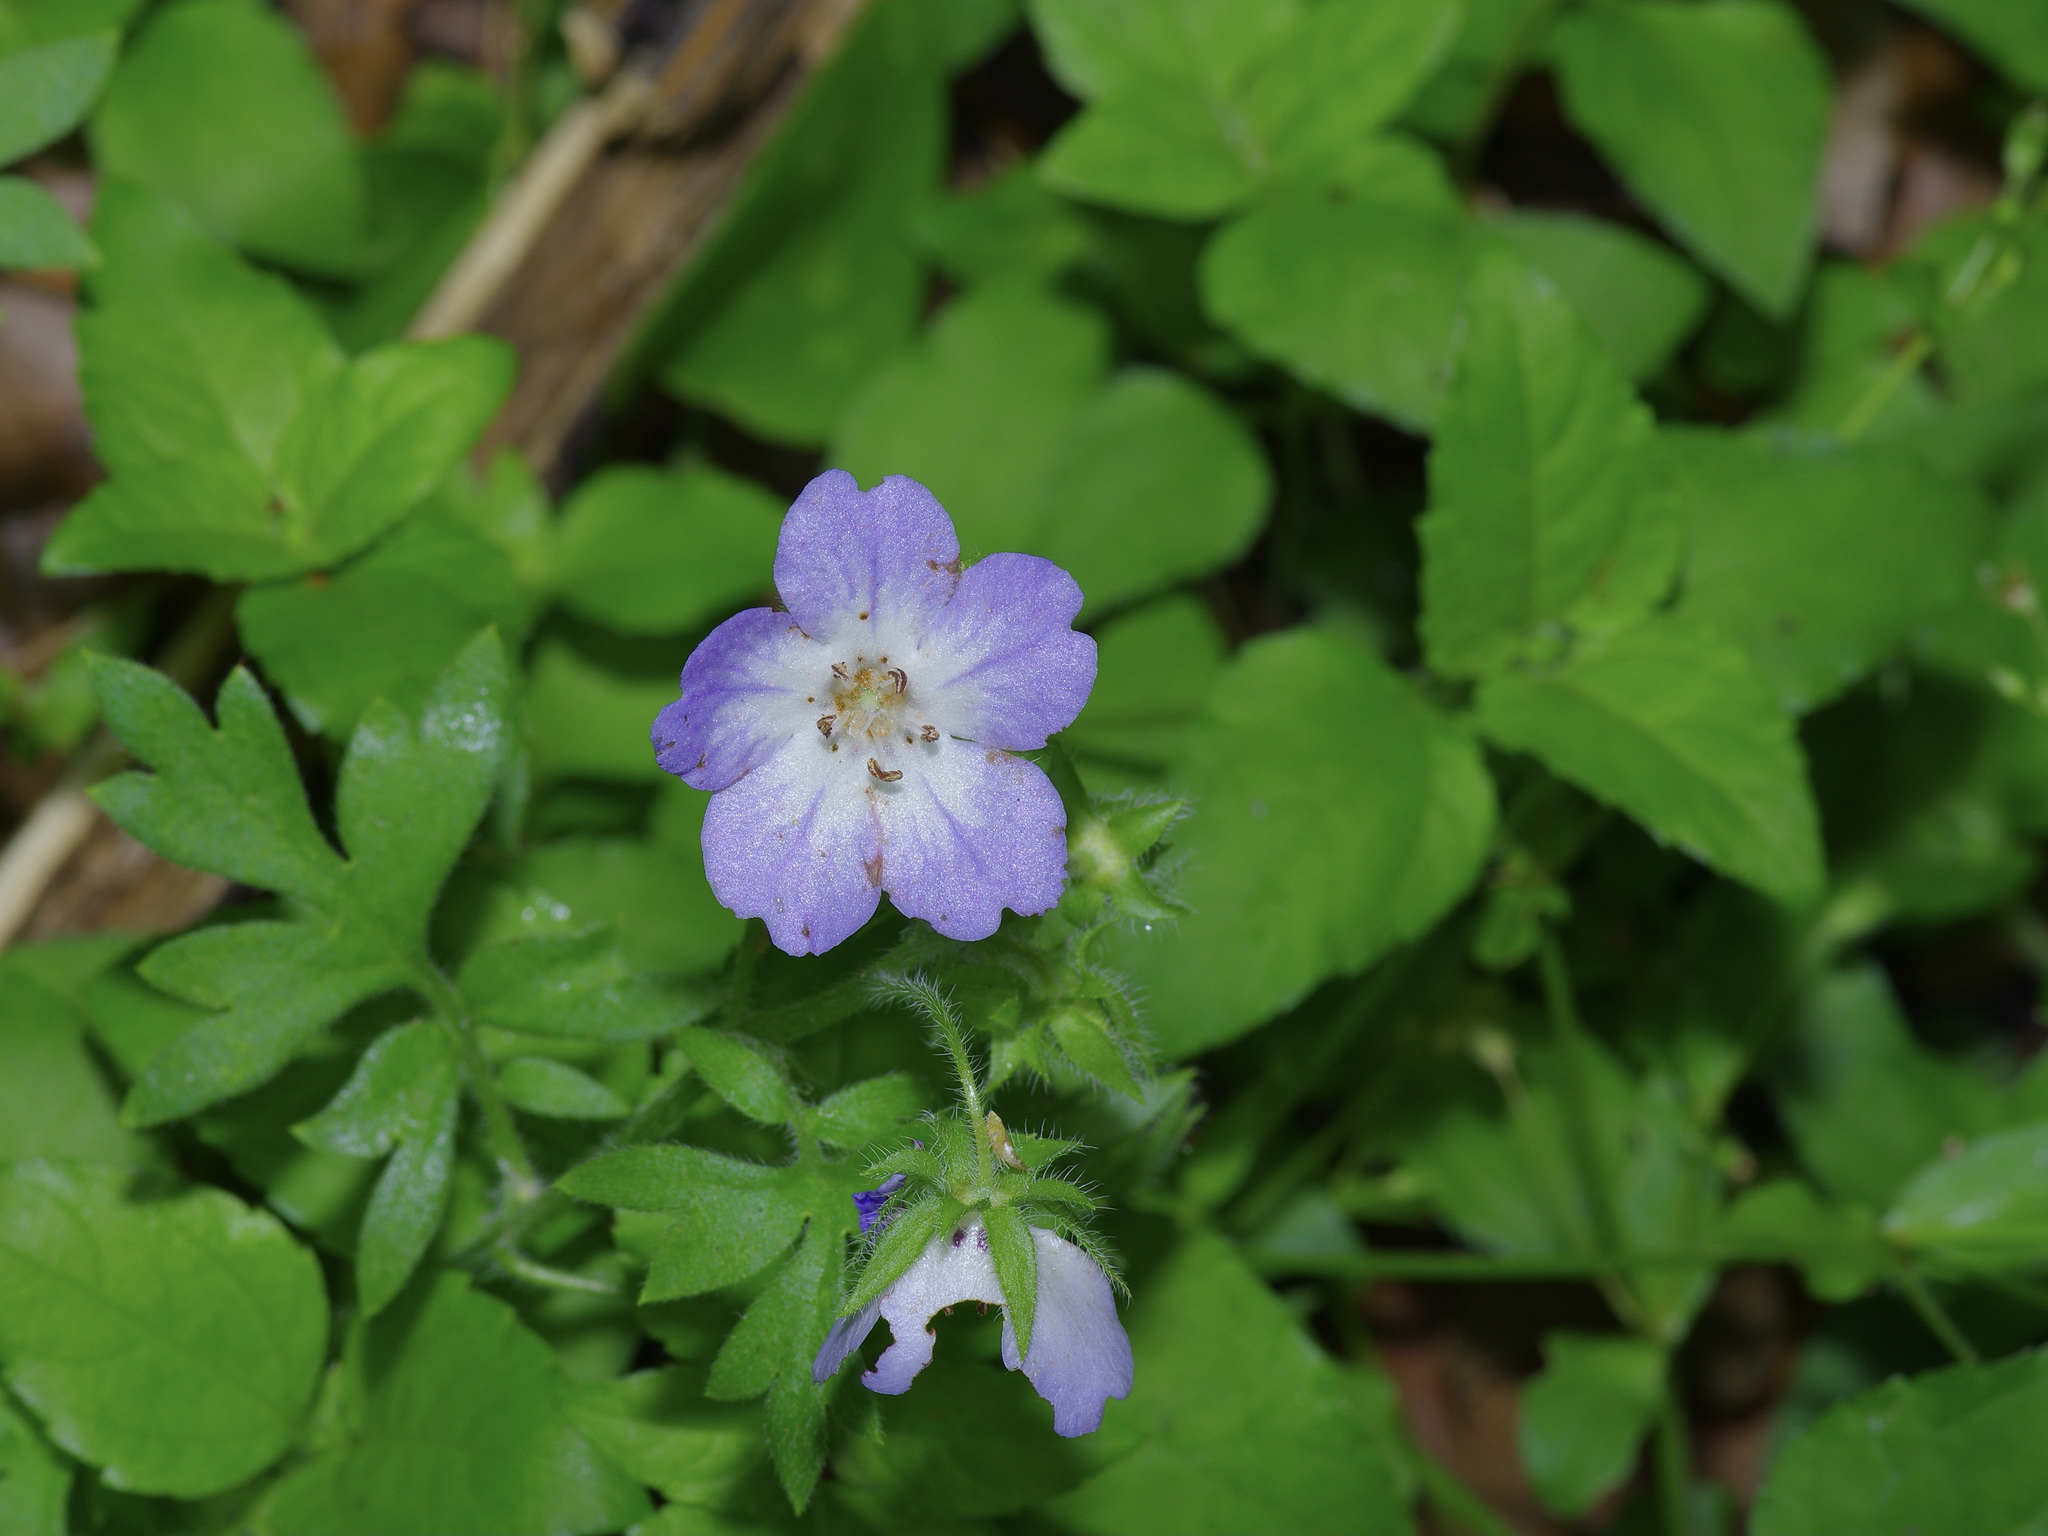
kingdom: Plantae
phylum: Tracheophyta
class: Magnoliopsida
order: Boraginales
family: Hydrophyllaceae
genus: Nemophila
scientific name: Nemophila phacelioides
